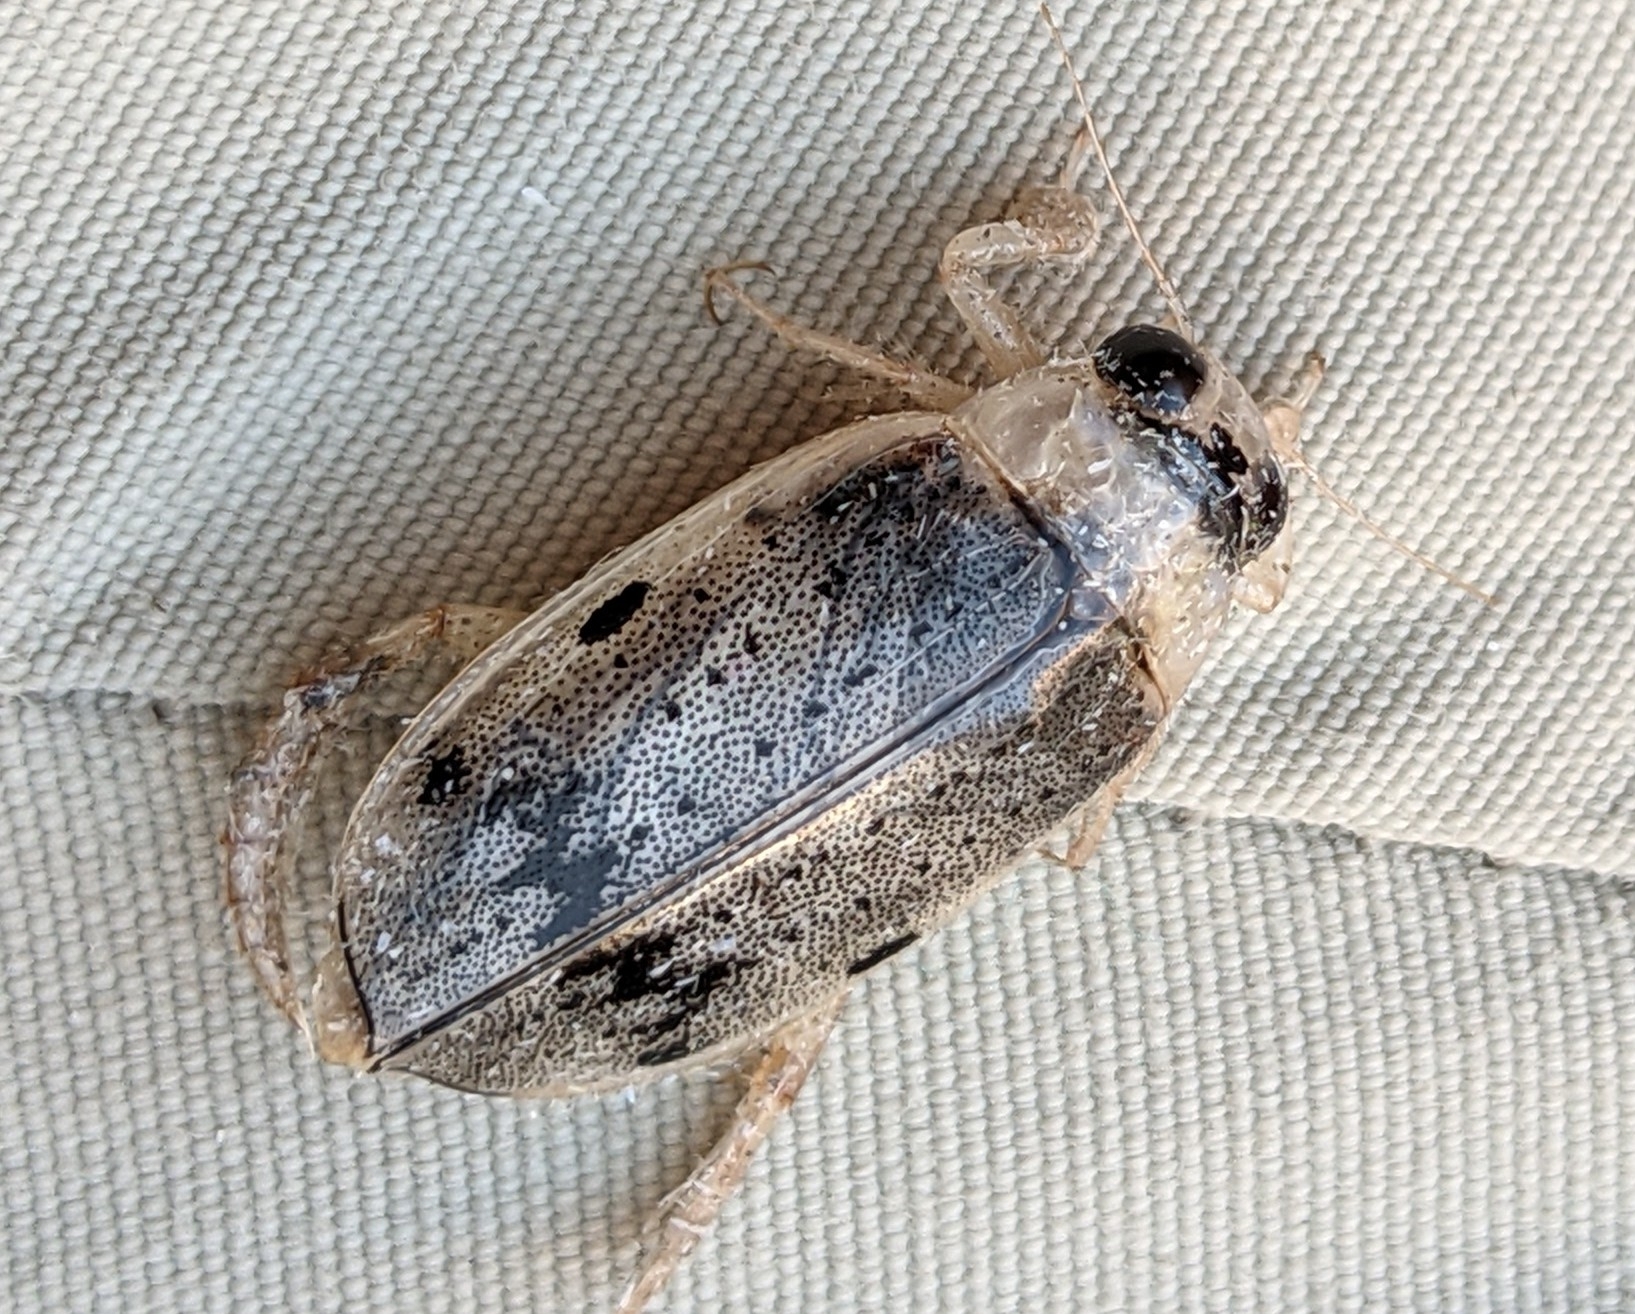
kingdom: Animalia
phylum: Arthropoda
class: Insecta
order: Coleoptera
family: Dytiscidae
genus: Eretes
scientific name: Eretes
